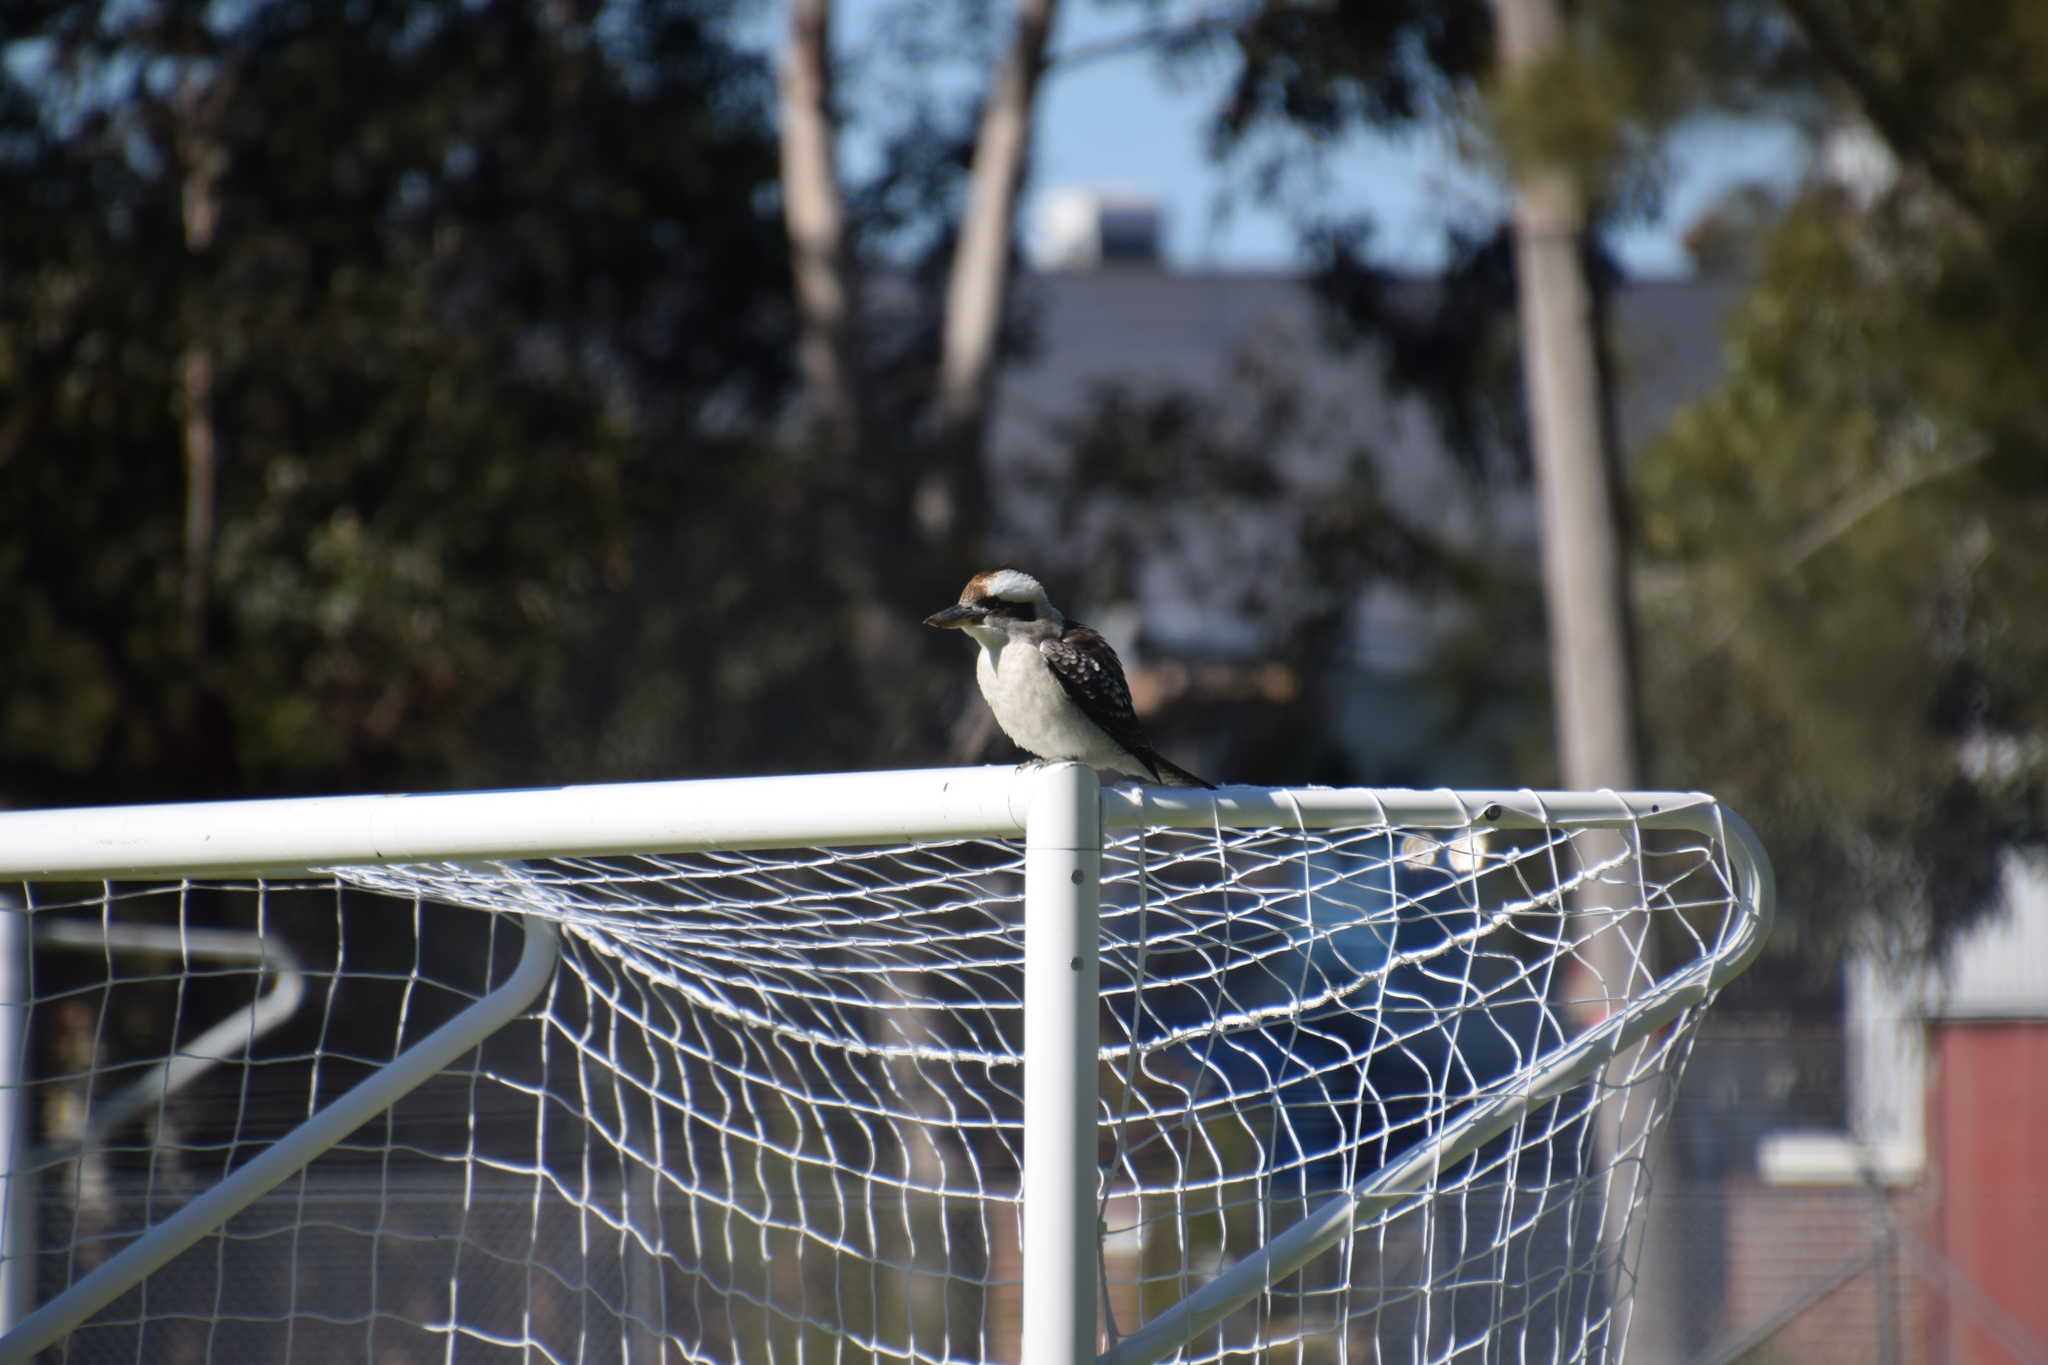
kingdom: Animalia
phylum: Chordata
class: Aves
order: Coraciiformes
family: Alcedinidae
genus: Dacelo
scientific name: Dacelo novaeguineae
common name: Laughing kookaburra
